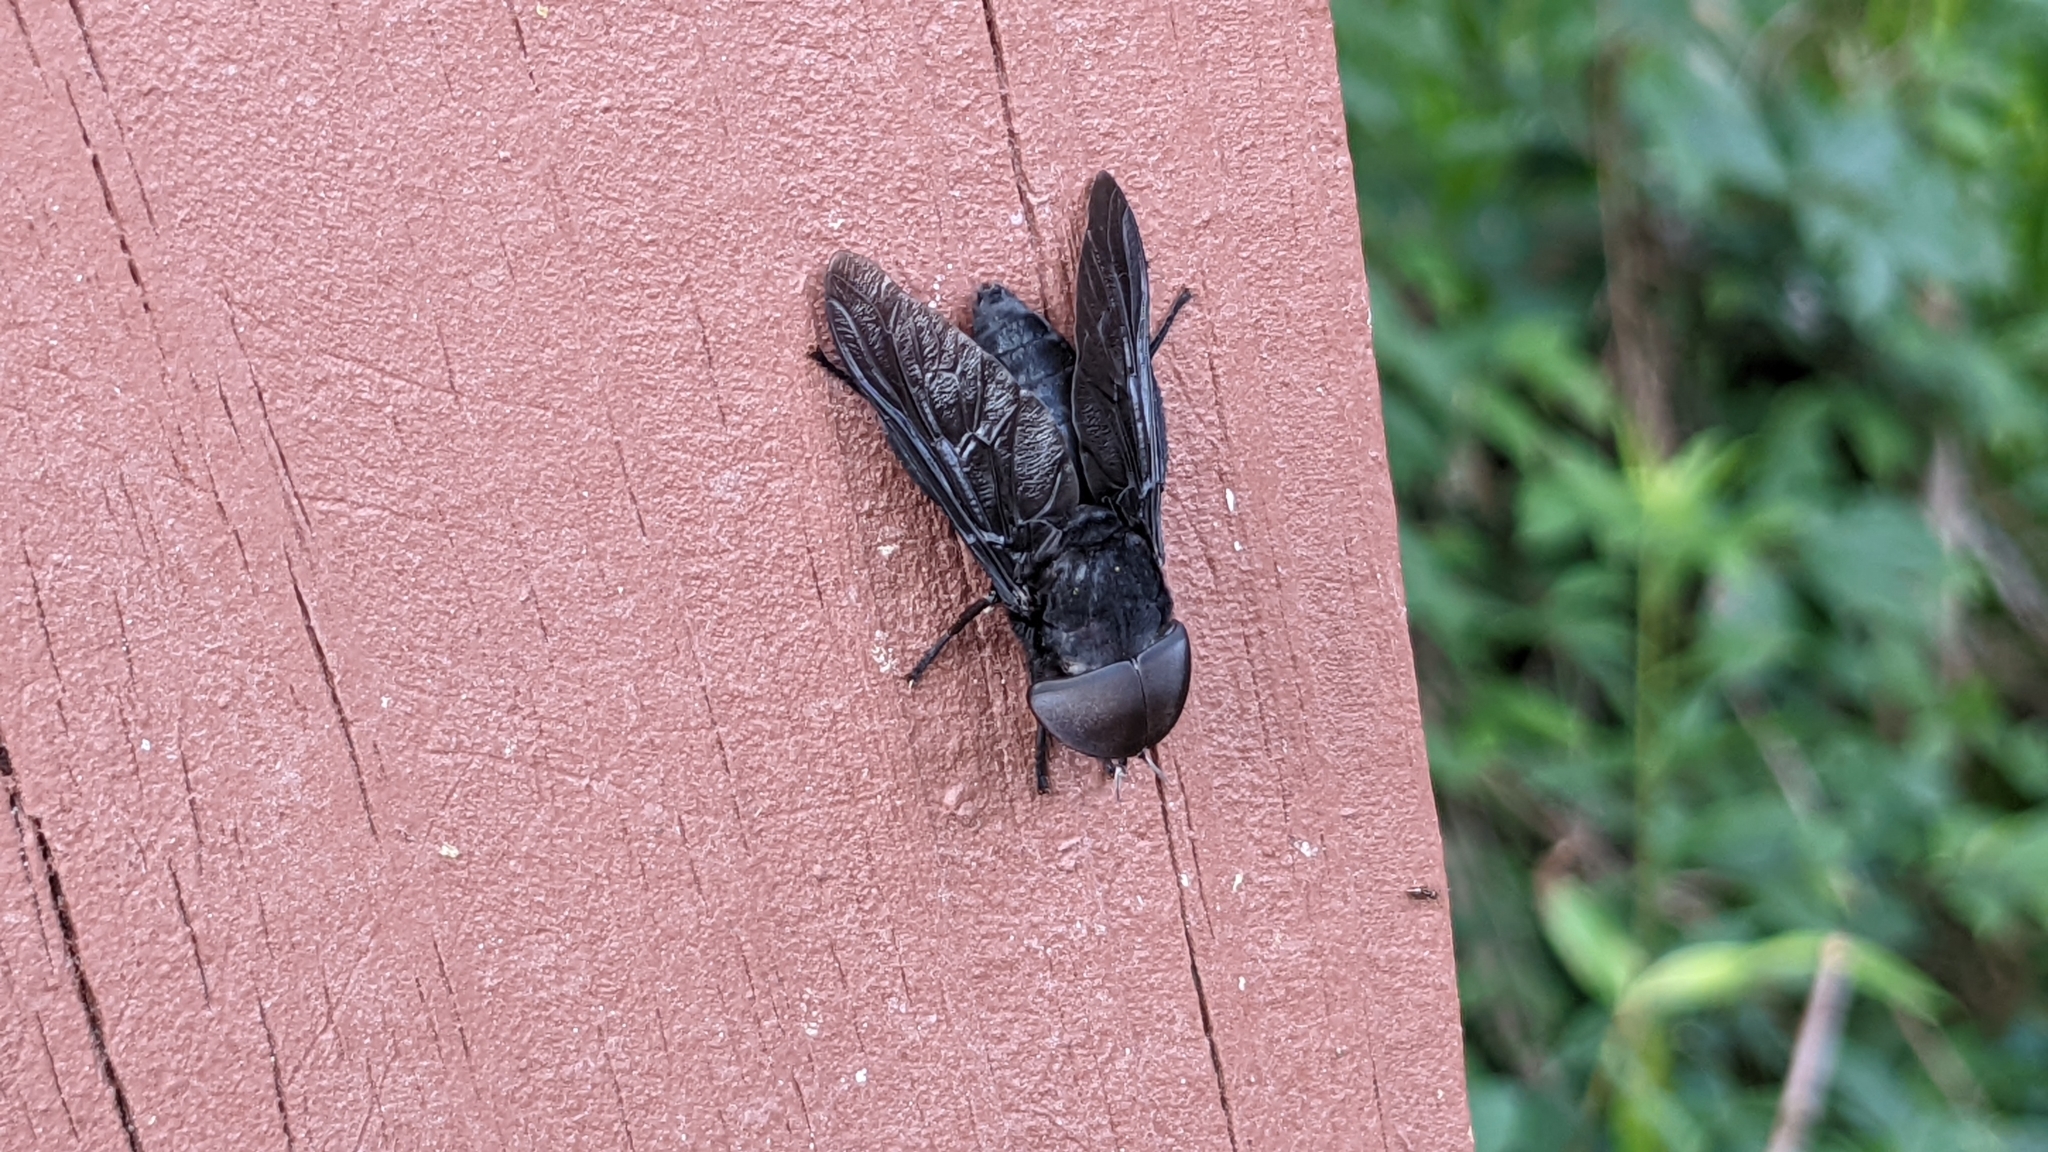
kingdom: Animalia
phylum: Arthropoda
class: Insecta
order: Diptera
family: Tabanidae
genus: Tabanus
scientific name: Tabanus atratus
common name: Black horse fly
